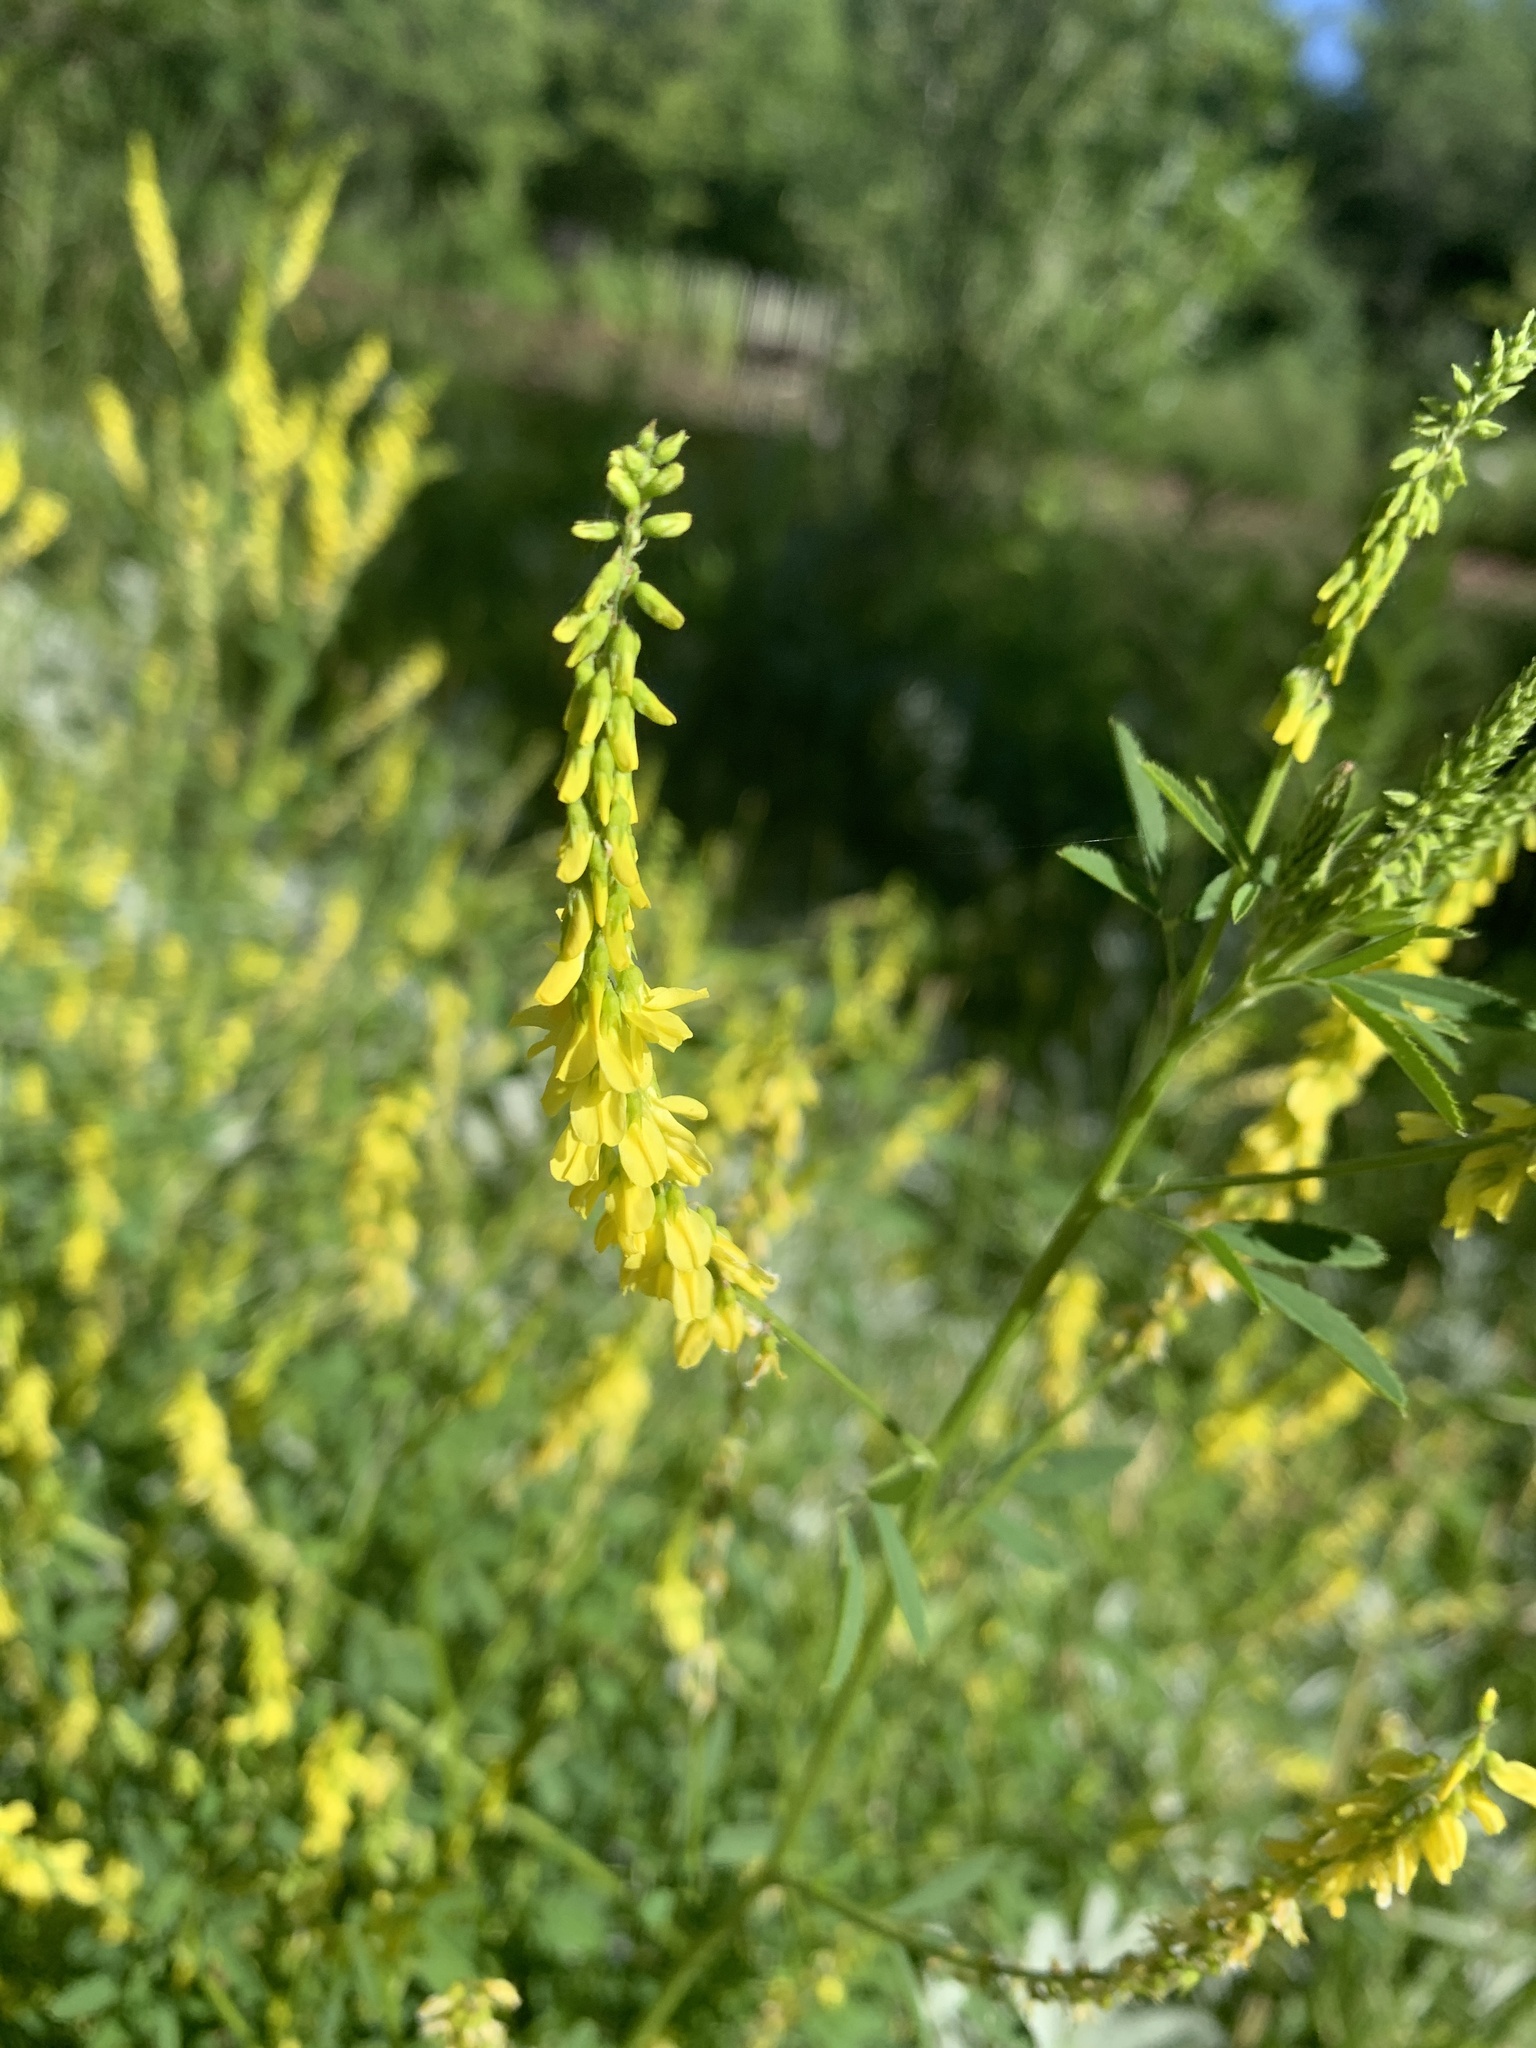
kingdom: Plantae
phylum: Tracheophyta
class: Magnoliopsida
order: Fabales
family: Fabaceae
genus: Melilotus
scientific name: Melilotus officinalis
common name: Sweetclover
